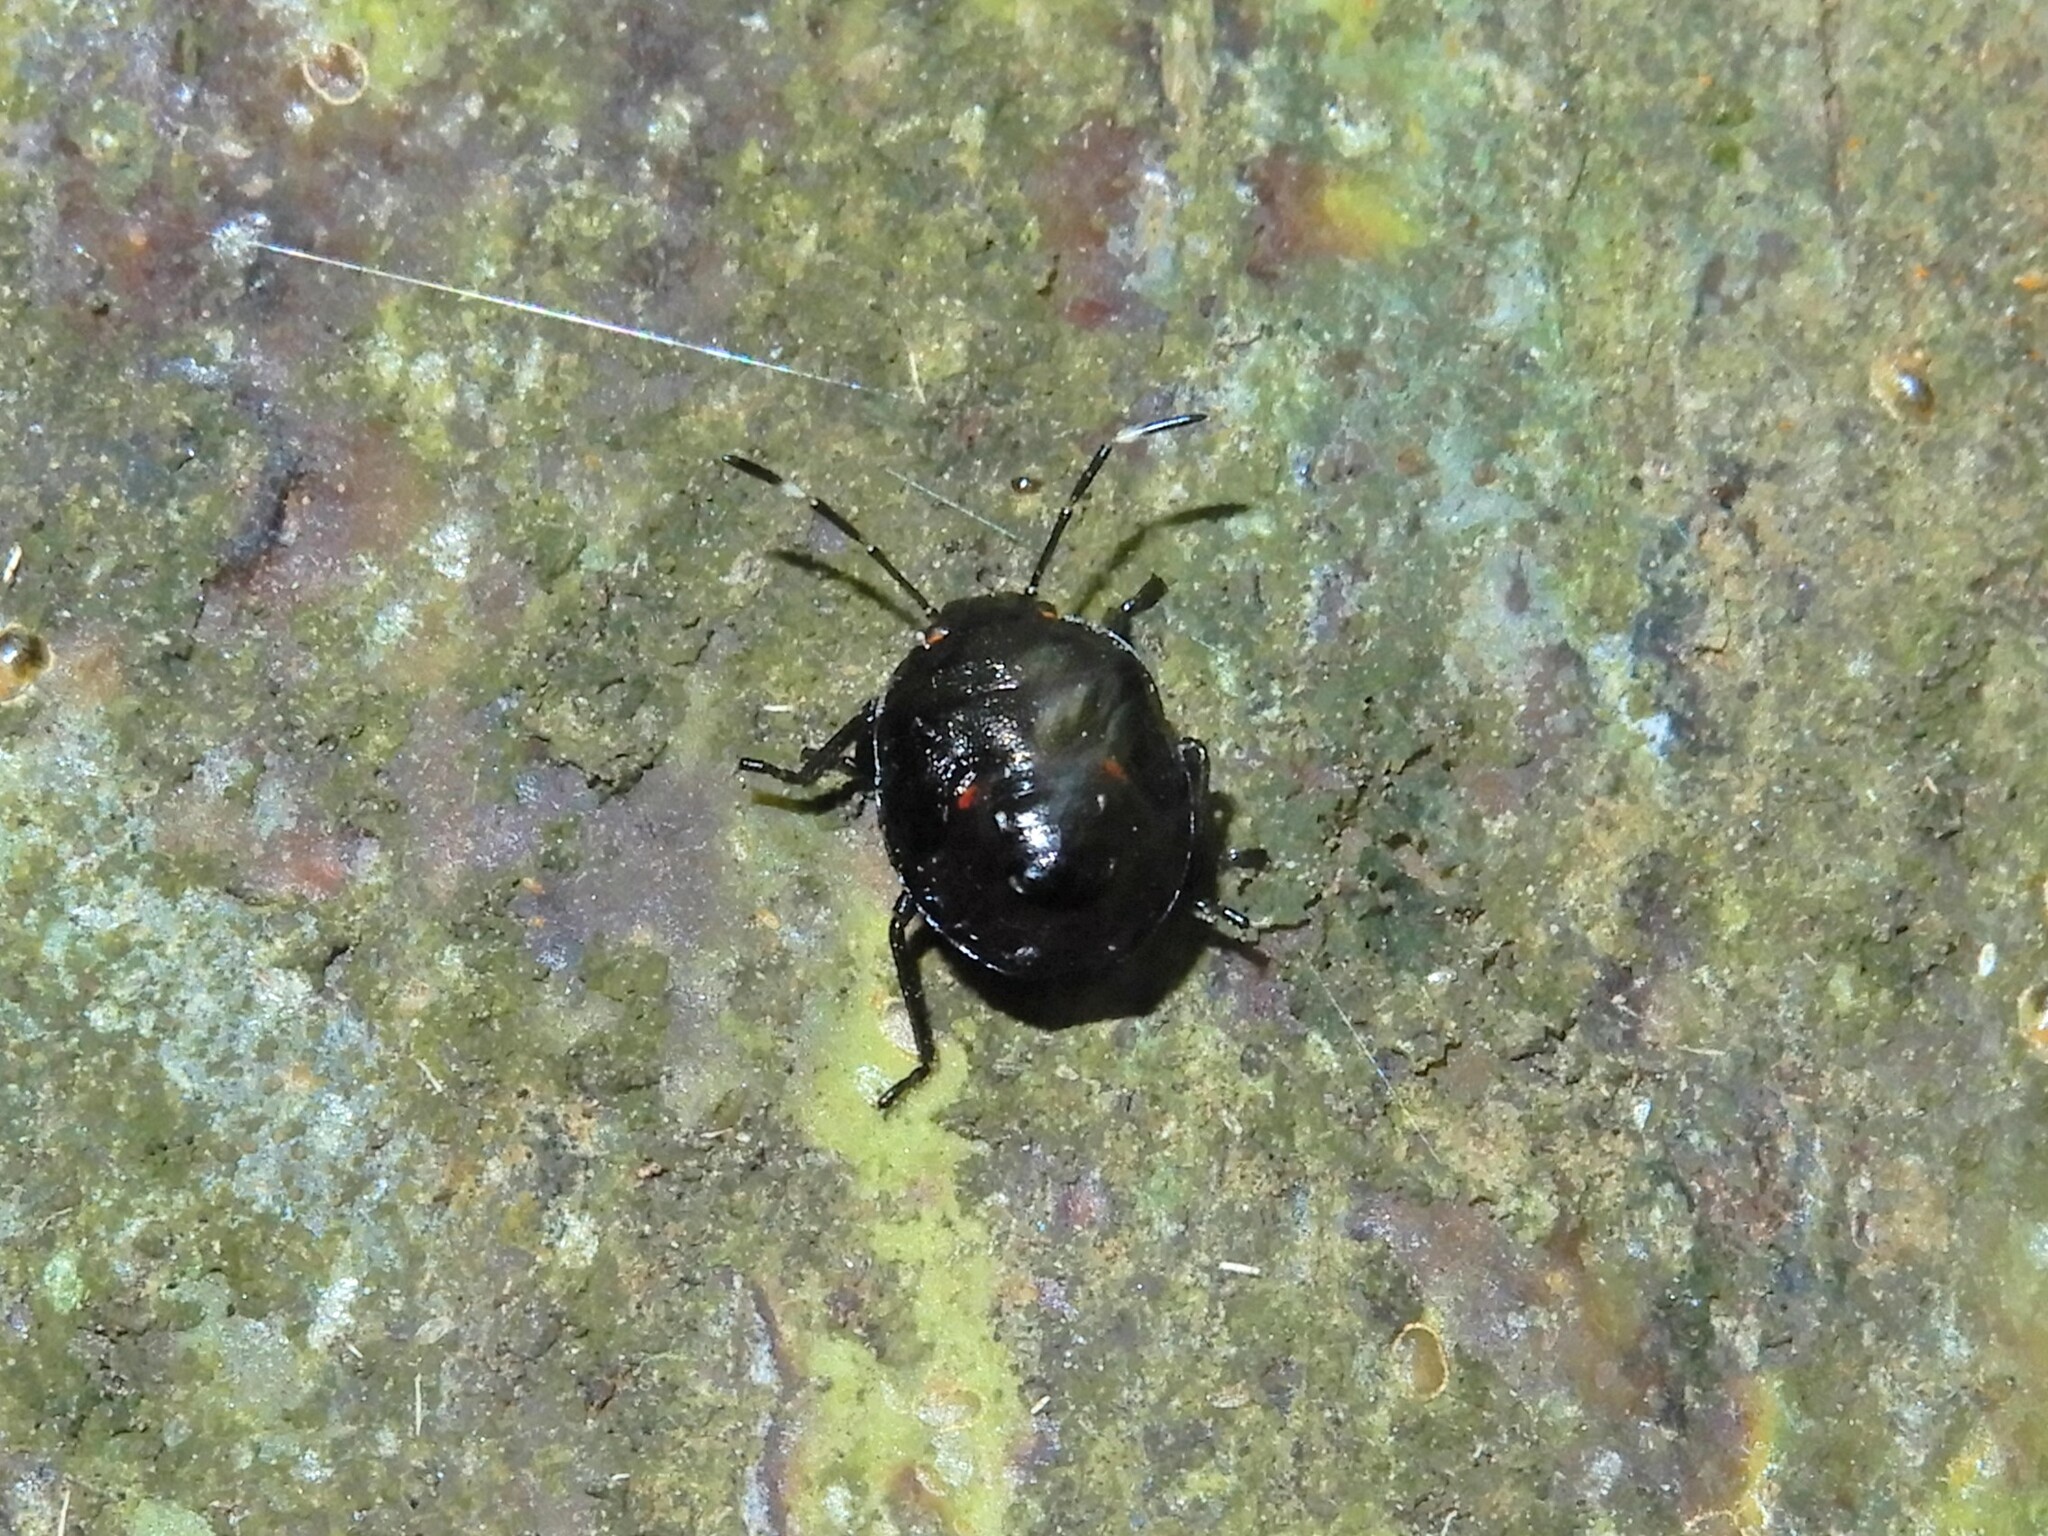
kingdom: Animalia
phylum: Arthropoda
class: Insecta
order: Hemiptera
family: Pentatomidae
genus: Monteithiella
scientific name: Monteithiella
